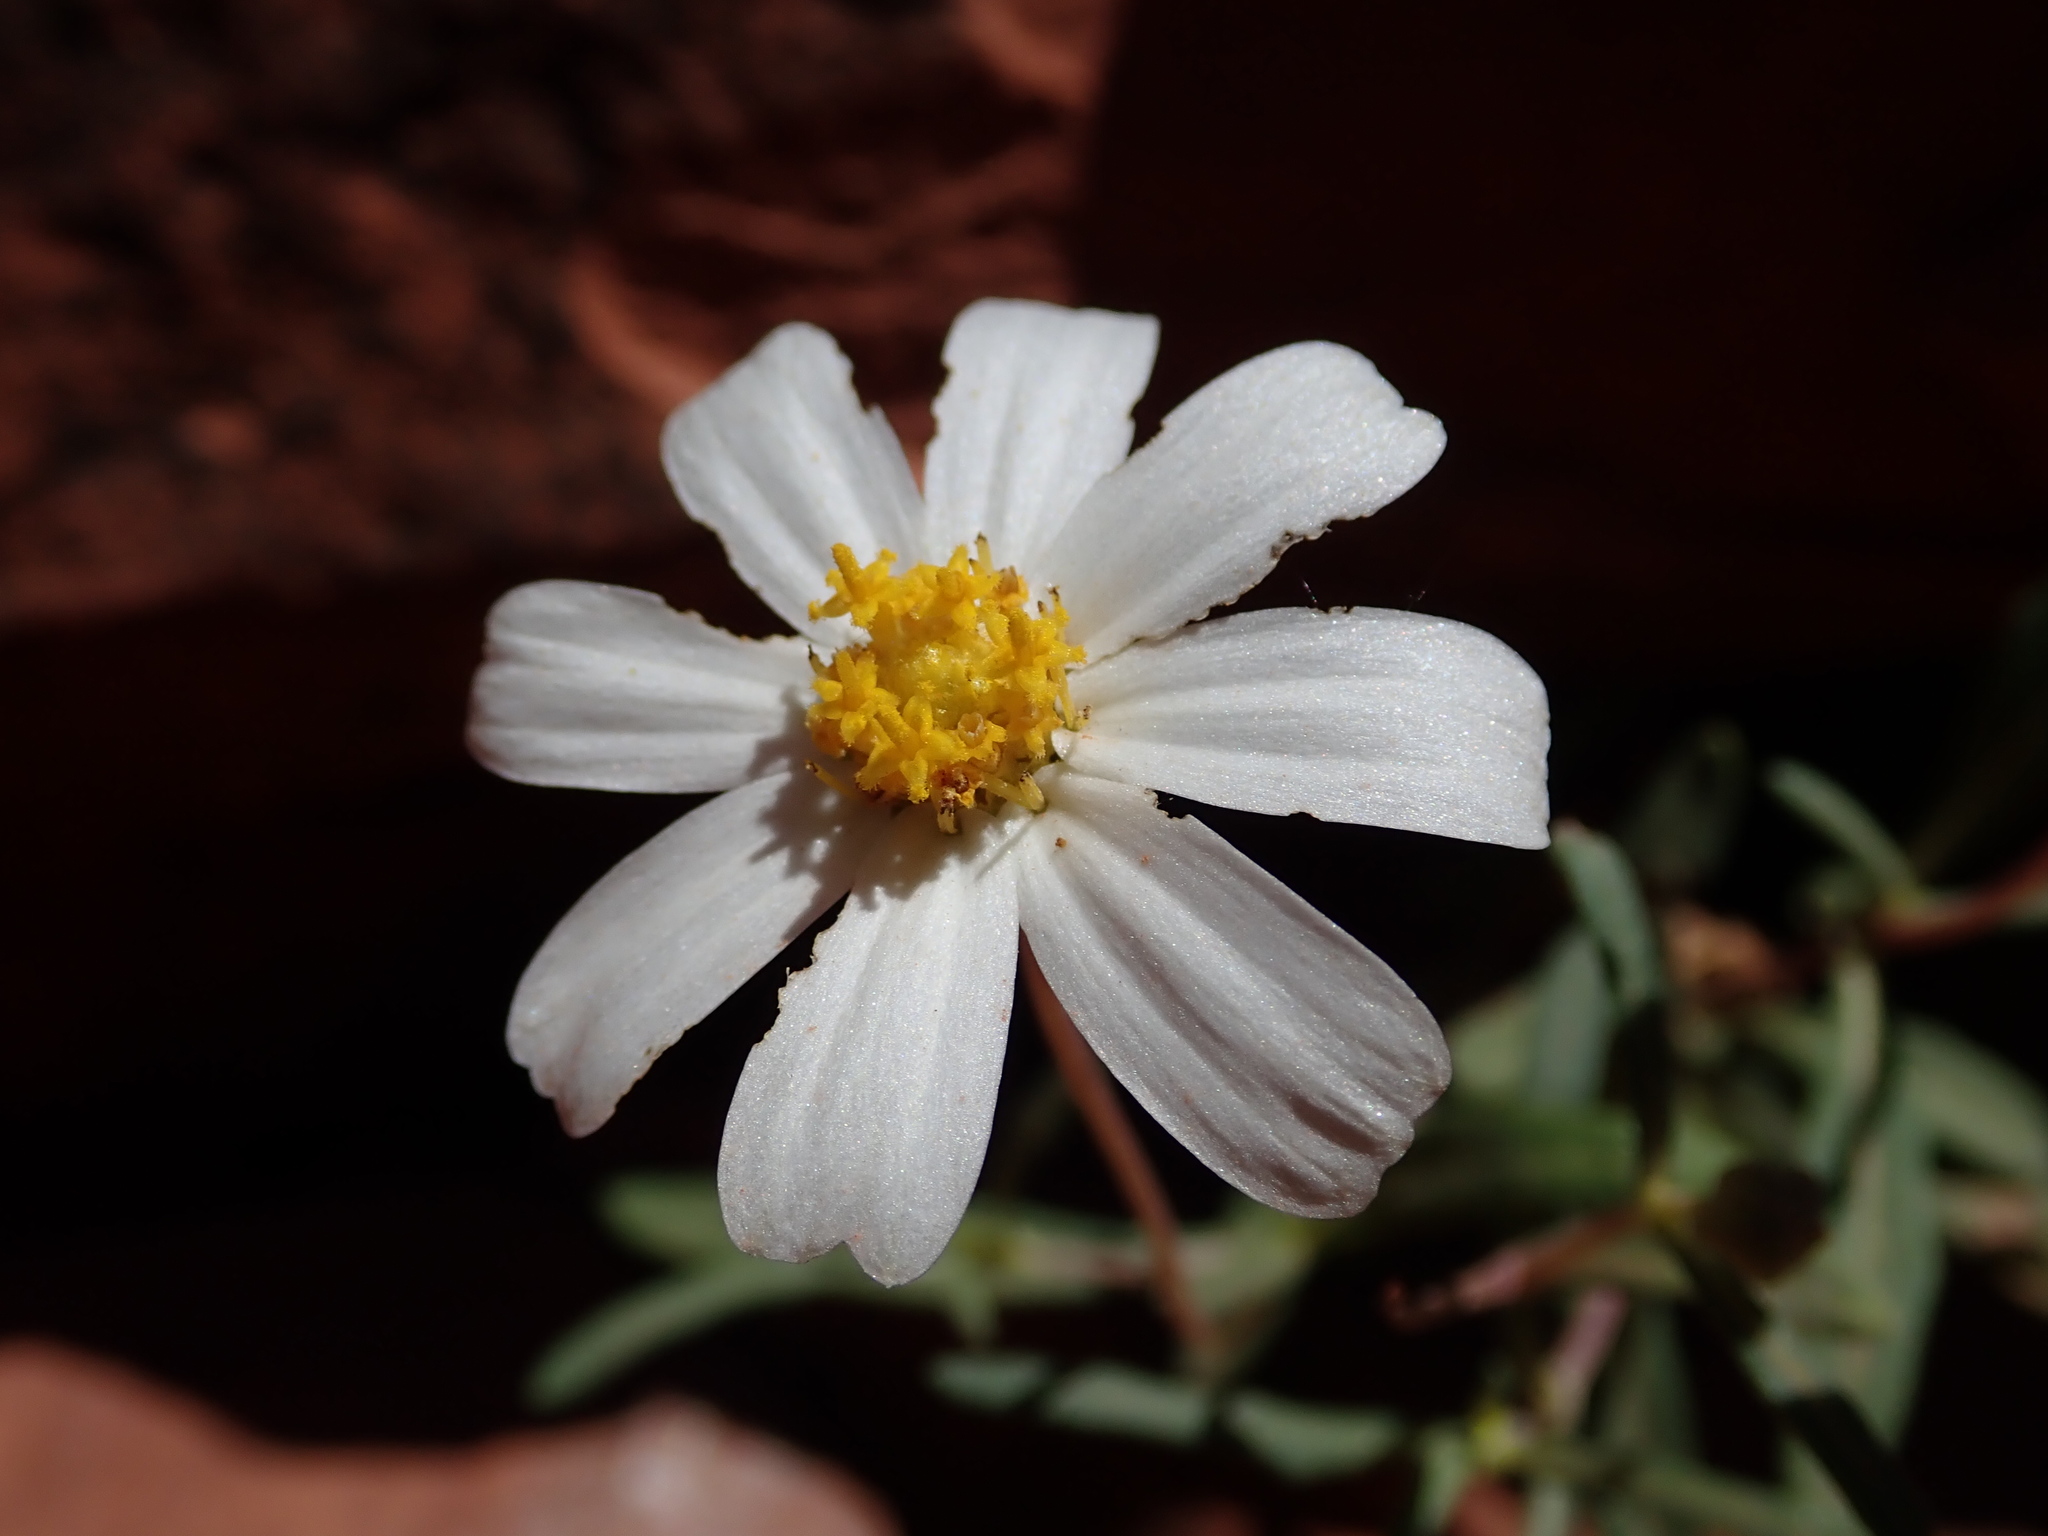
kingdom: Plantae
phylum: Tracheophyta
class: Magnoliopsida
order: Asterales
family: Asteraceae
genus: Melampodium
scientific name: Melampodium leucanthum
